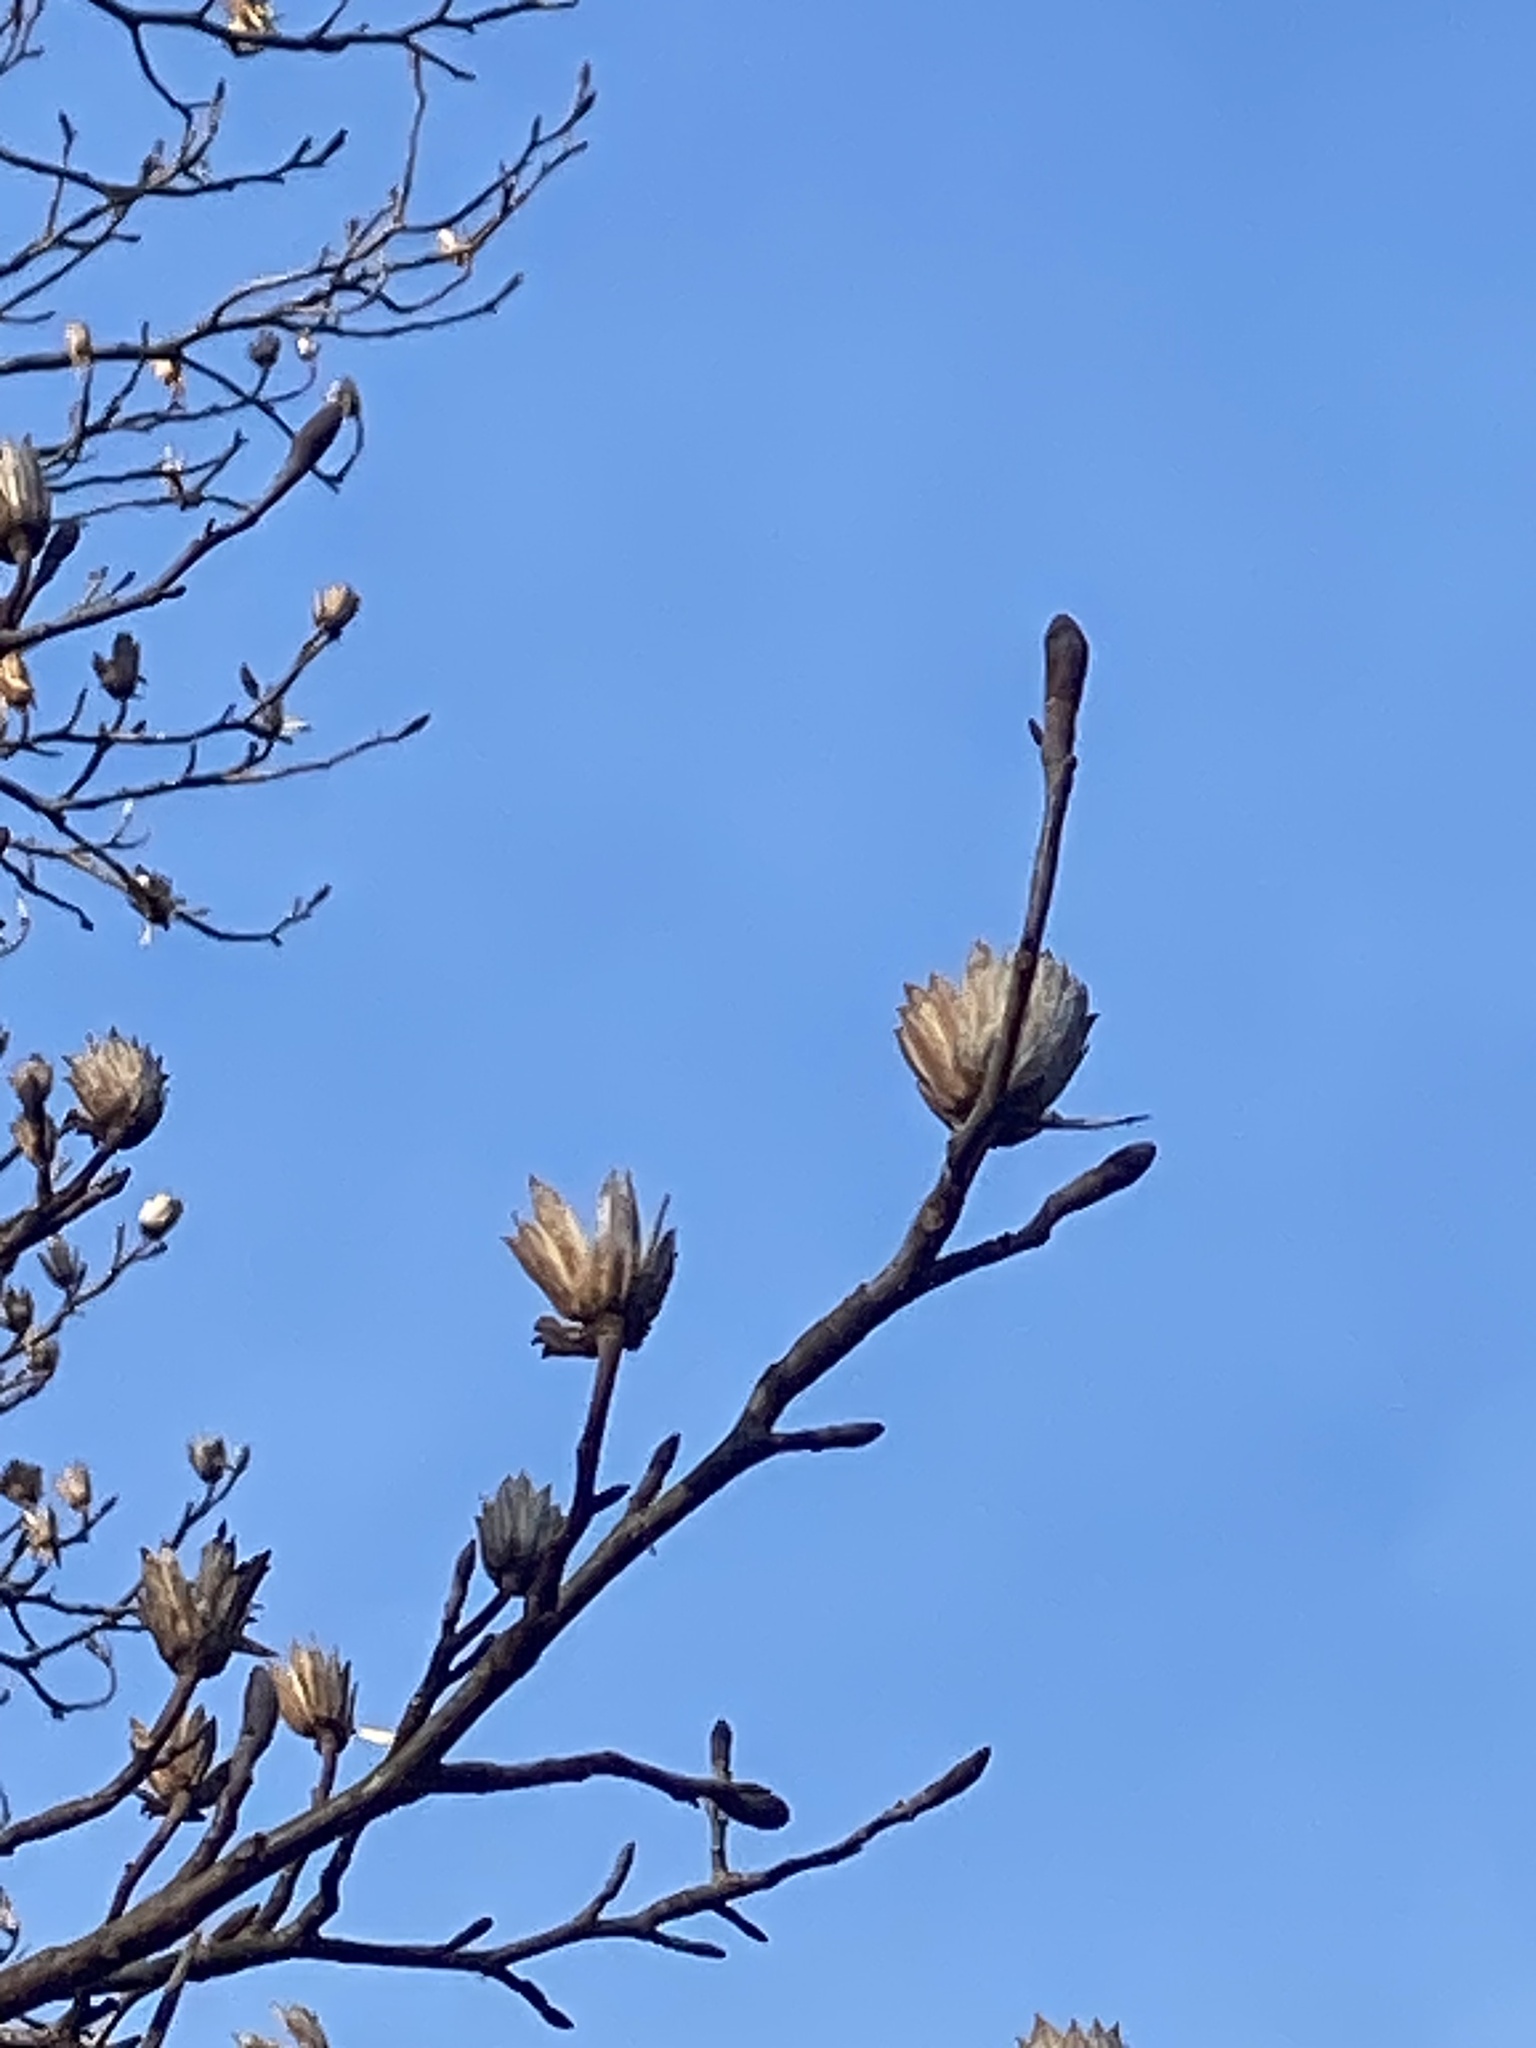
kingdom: Plantae
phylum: Tracheophyta
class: Magnoliopsida
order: Magnoliales
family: Magnoliaceae
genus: Liriodendron
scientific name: Liriodendron tulipifera
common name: Tulip tree
